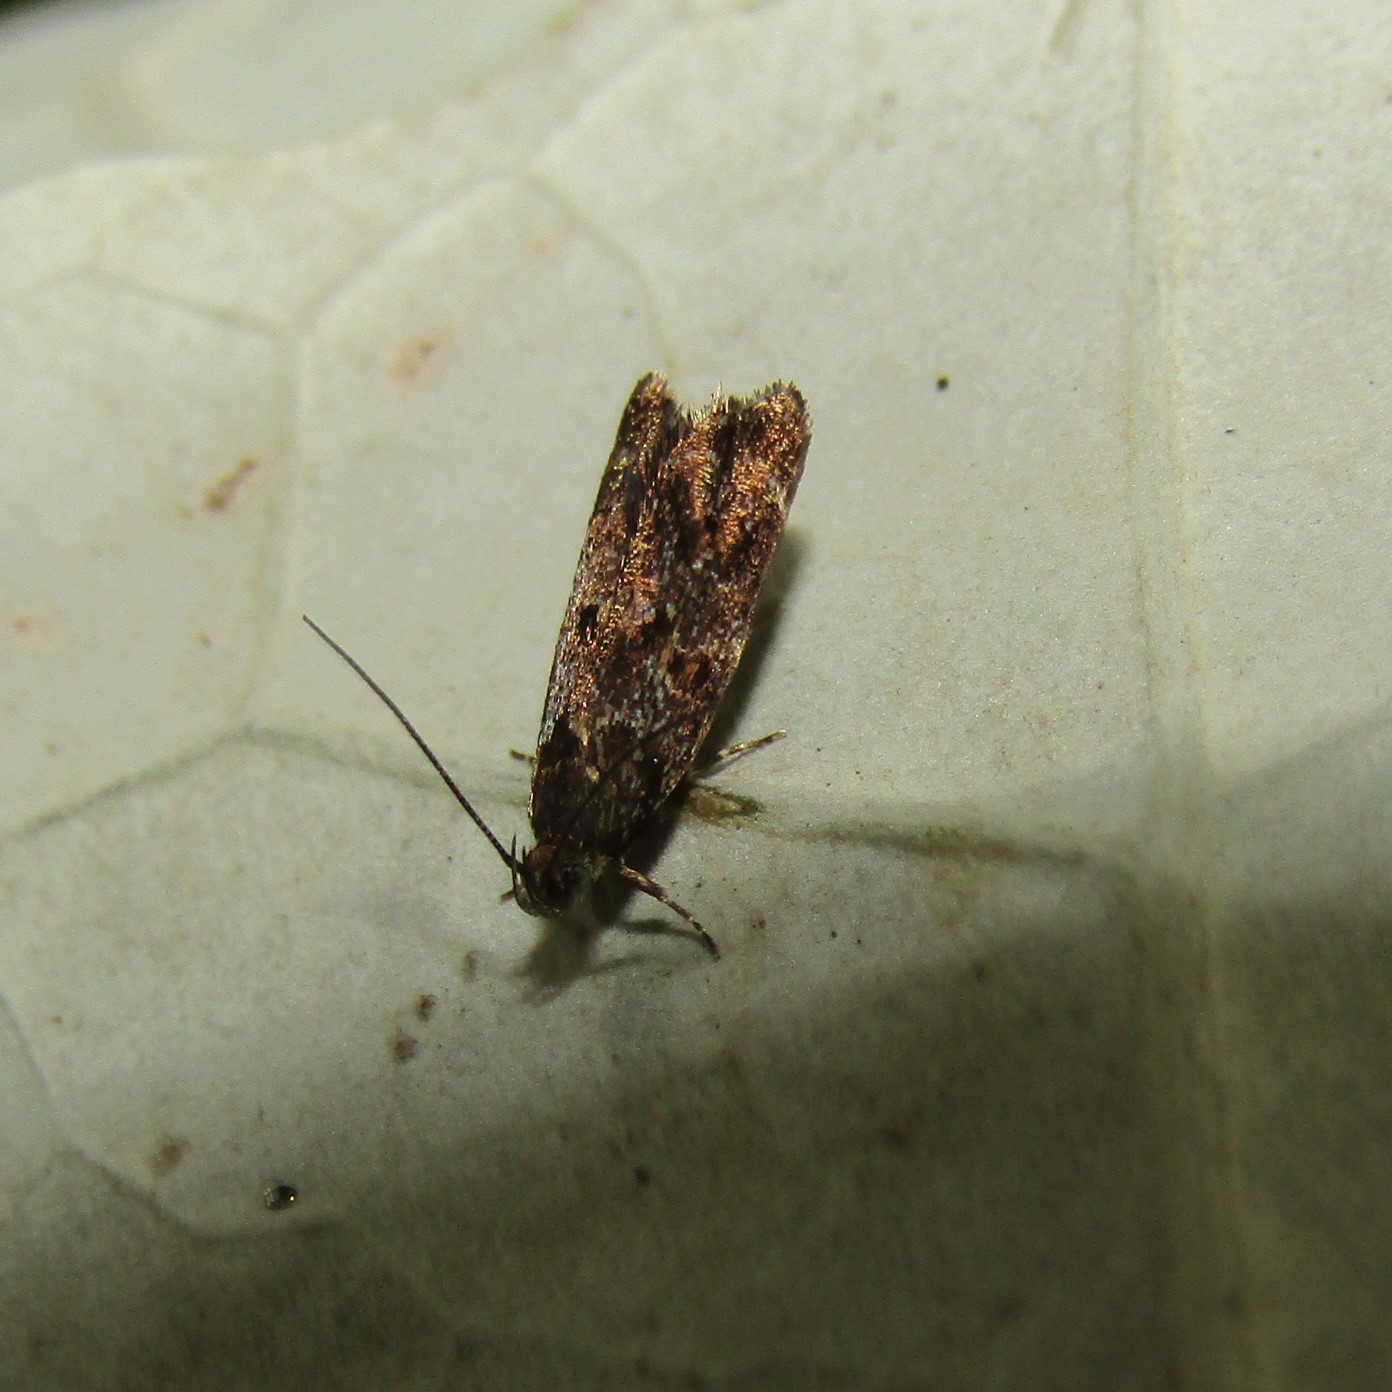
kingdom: Animalia
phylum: Arthropoda
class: Insecta
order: Lepidoptera
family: Oecophoridae
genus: Gymnobathra
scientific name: Gymnobathra omphalota
